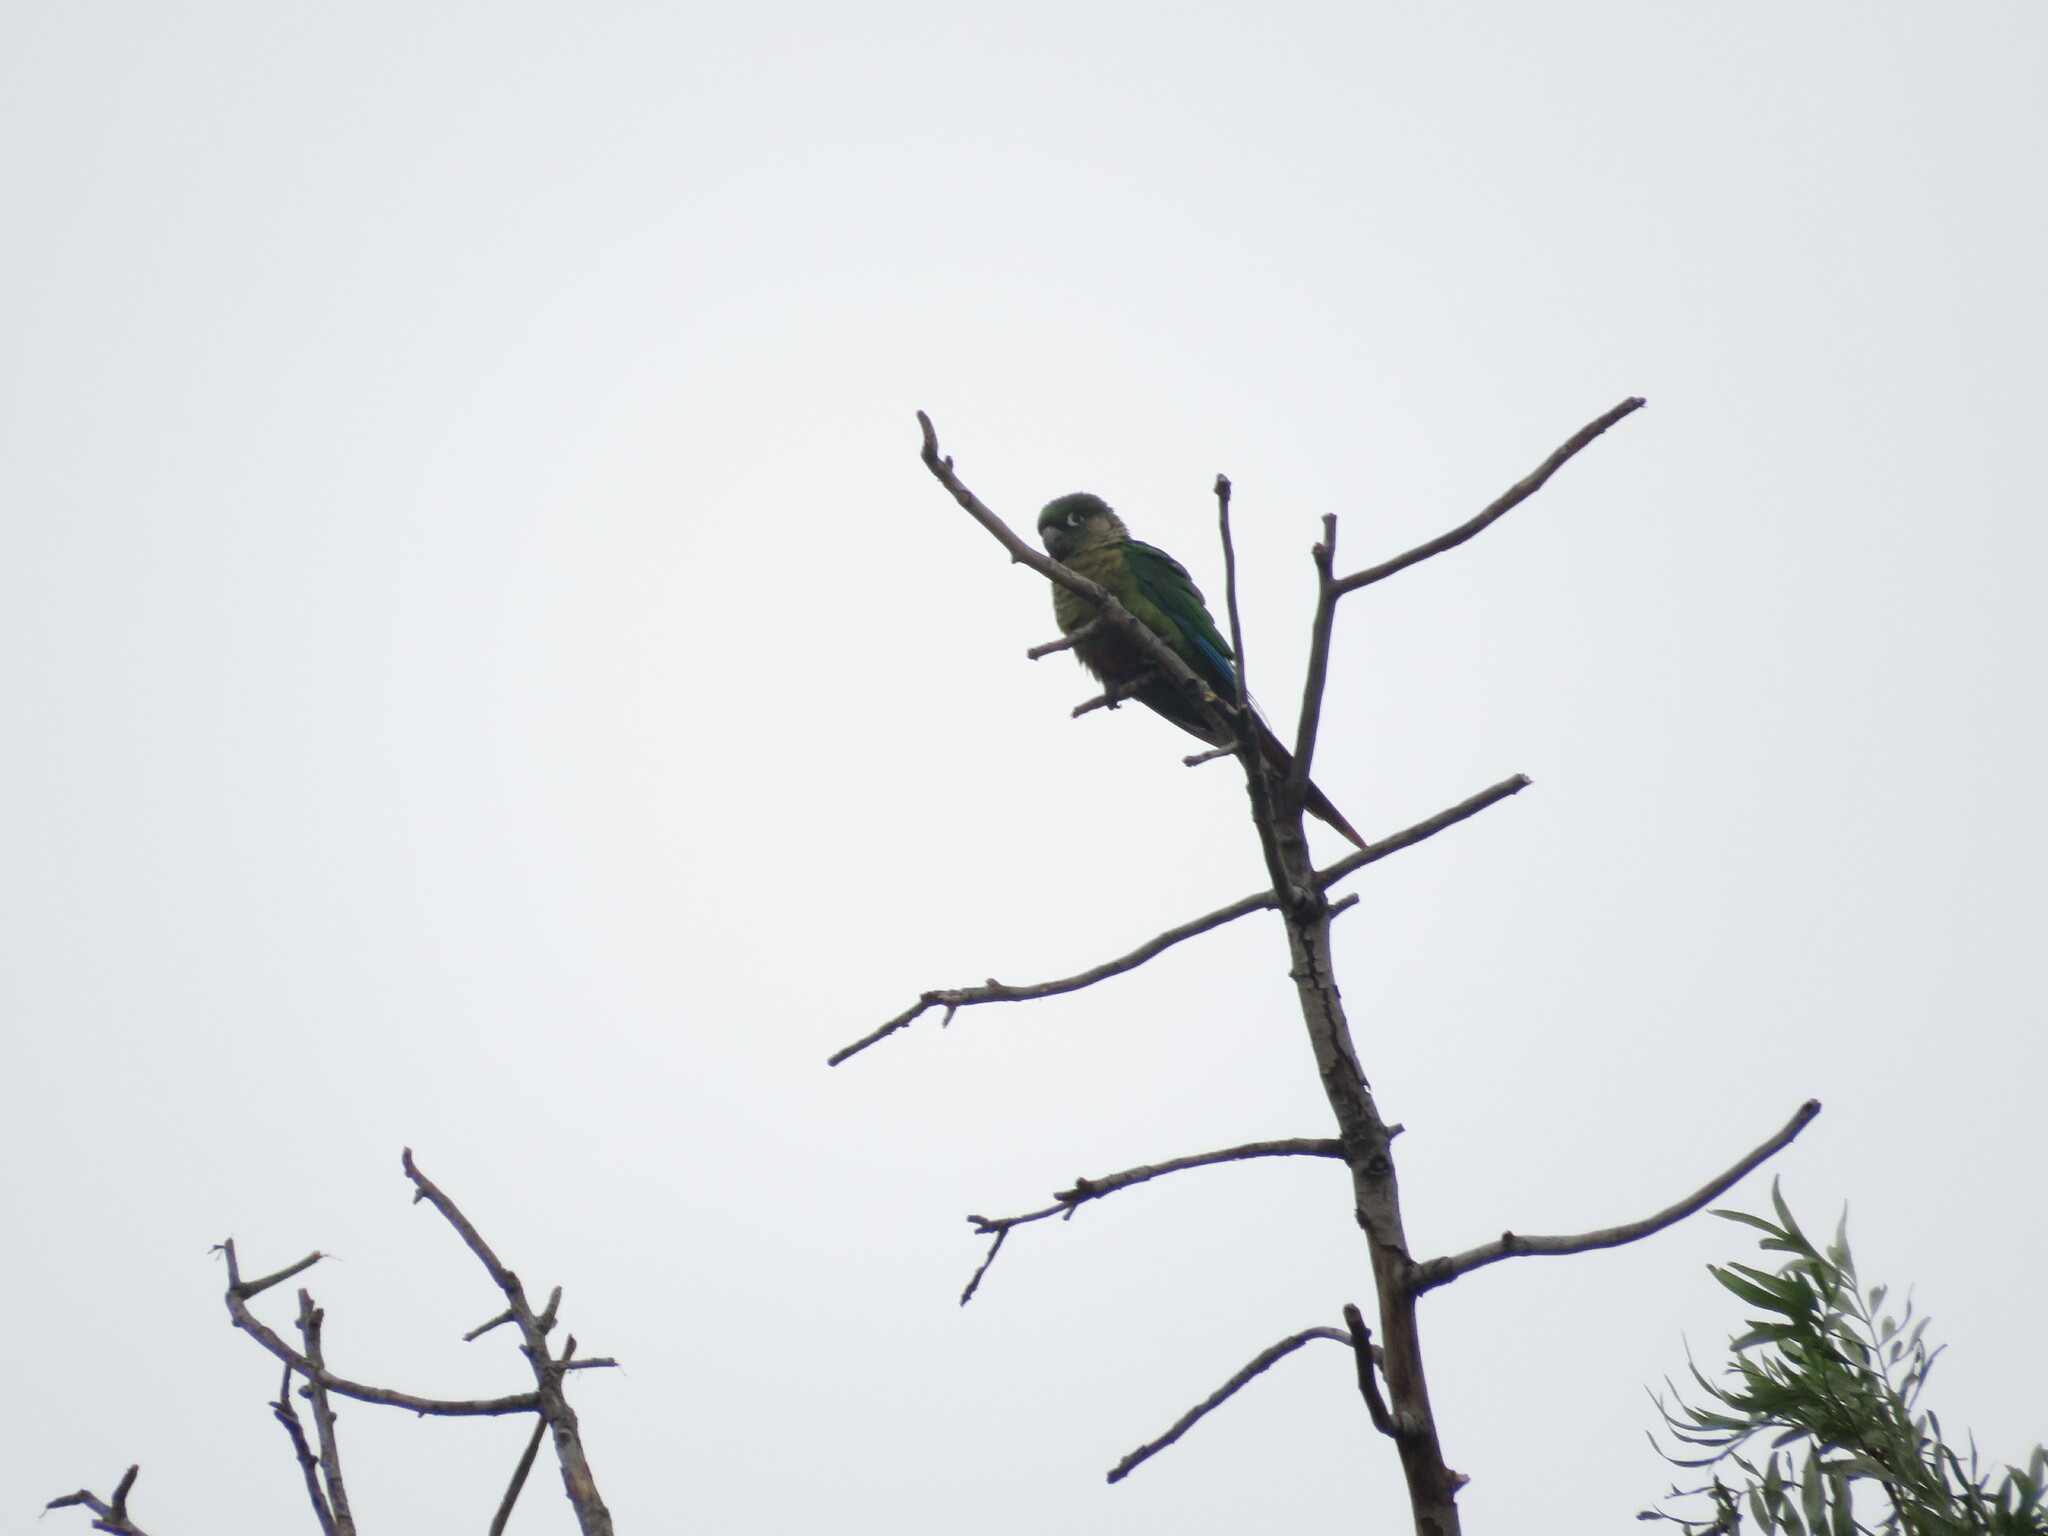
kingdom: Animalia
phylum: Chordata
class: Aves
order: Psittaciformes
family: Psittacidae
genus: Pyrrhura
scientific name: Pyrrhura frontalis
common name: Maroon-bellied parakeet
